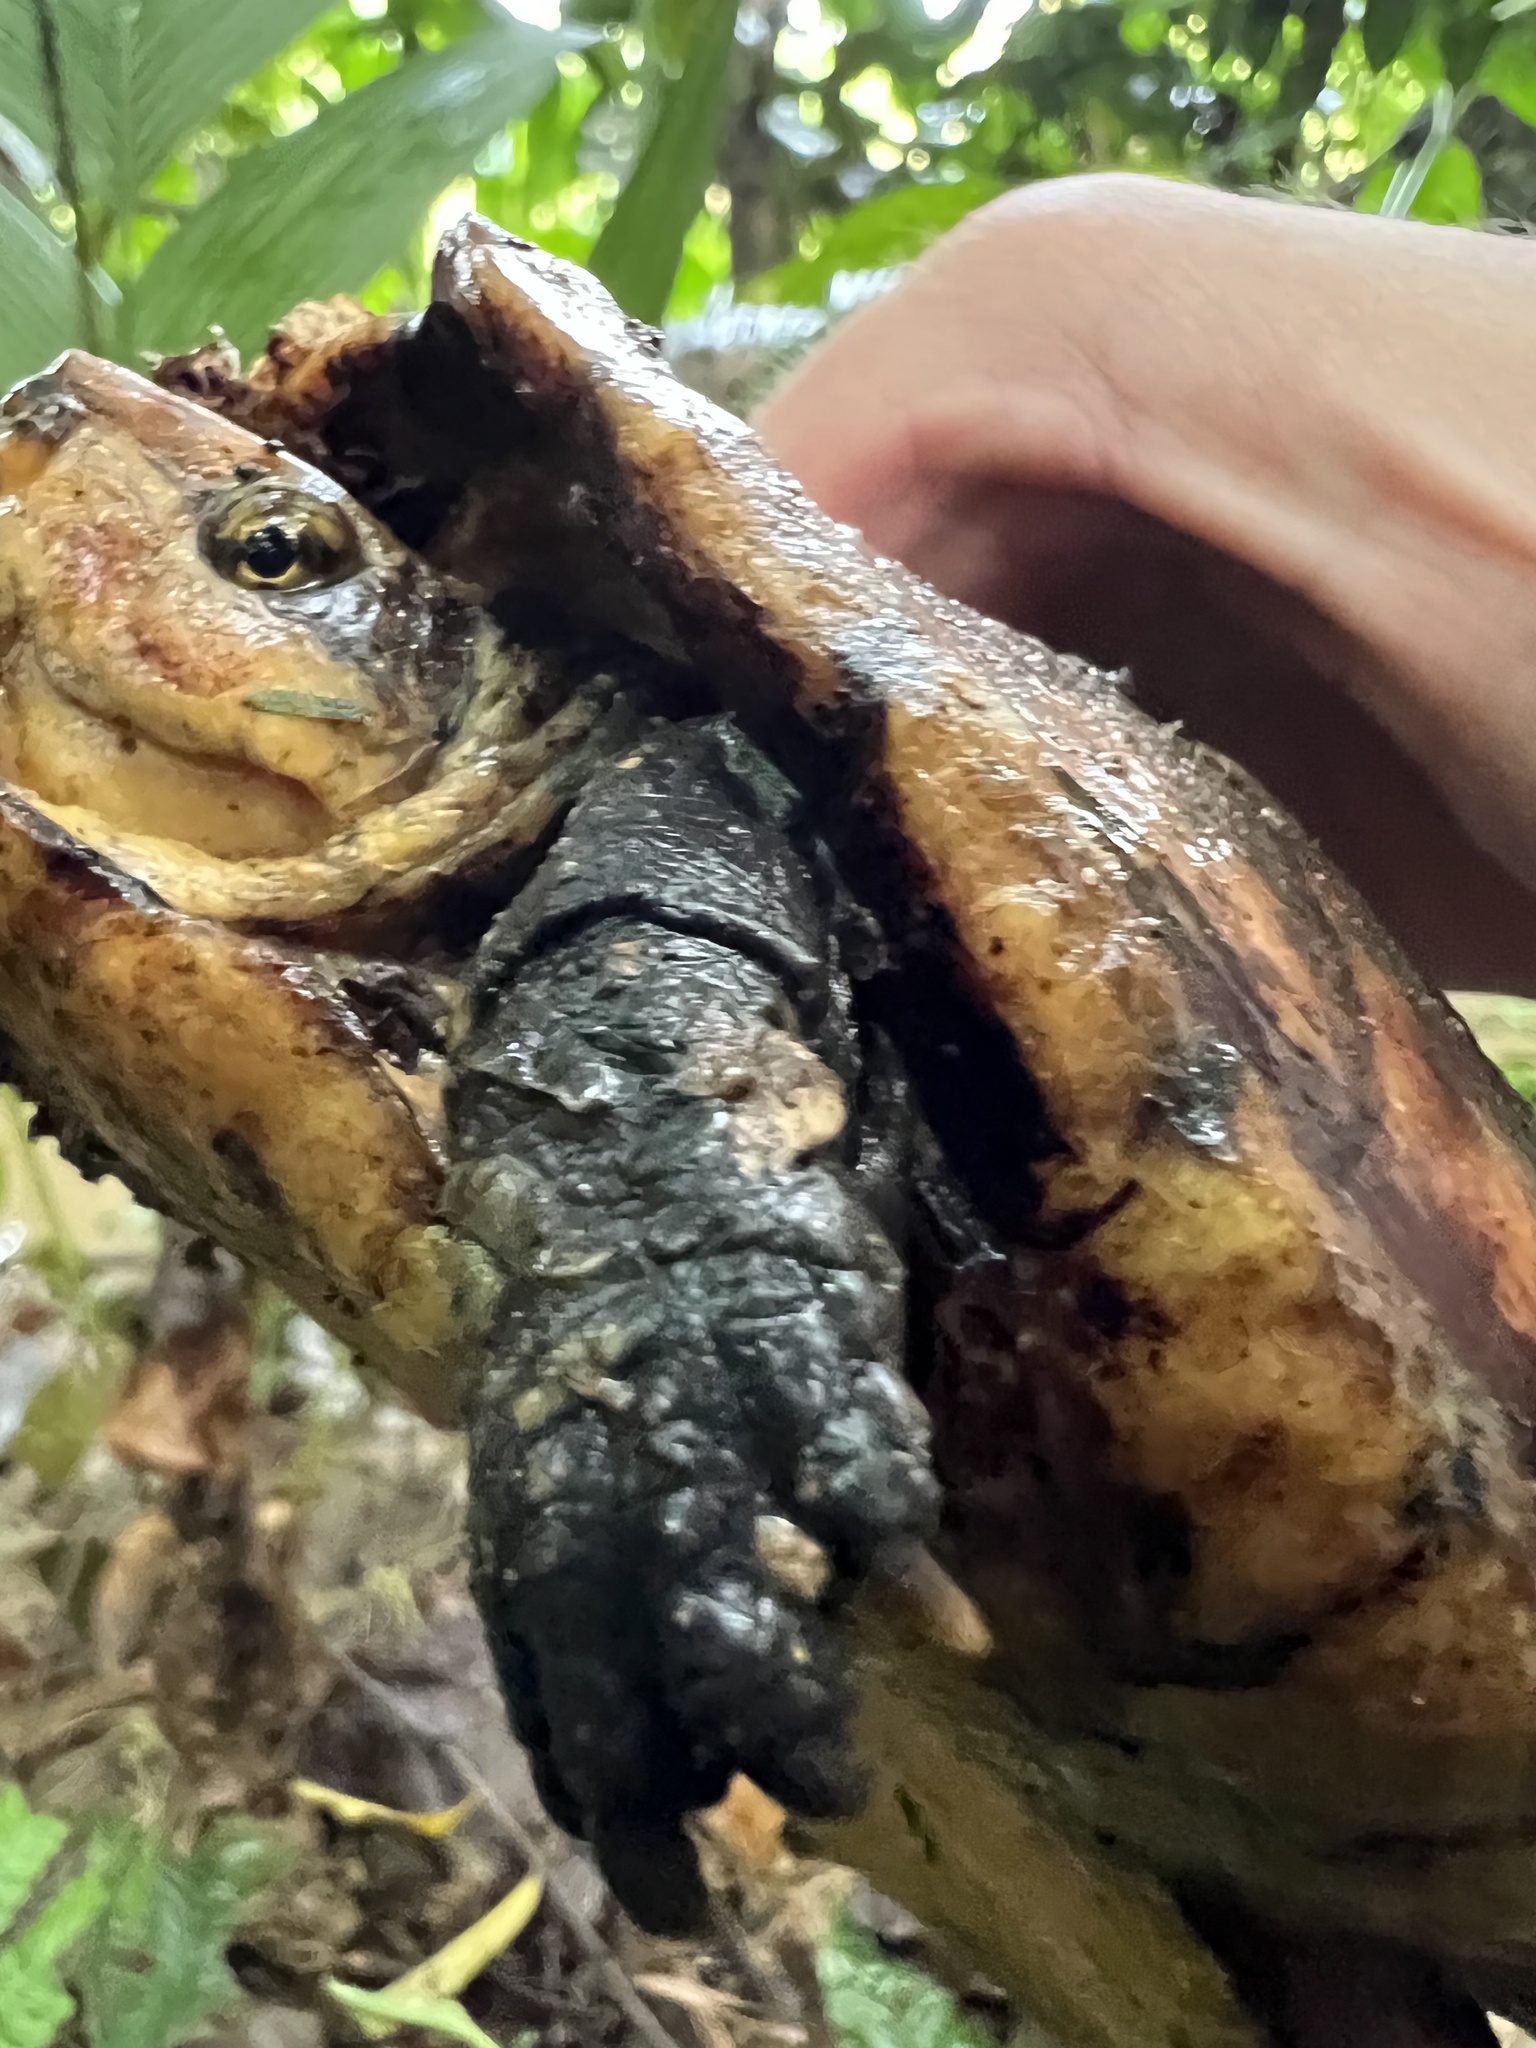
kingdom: Animalia
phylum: Chordata
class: Testudines
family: Kinosternidae
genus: Kinosternon
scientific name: Kinosternon leucostomum
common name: White-lipped mud turtle
